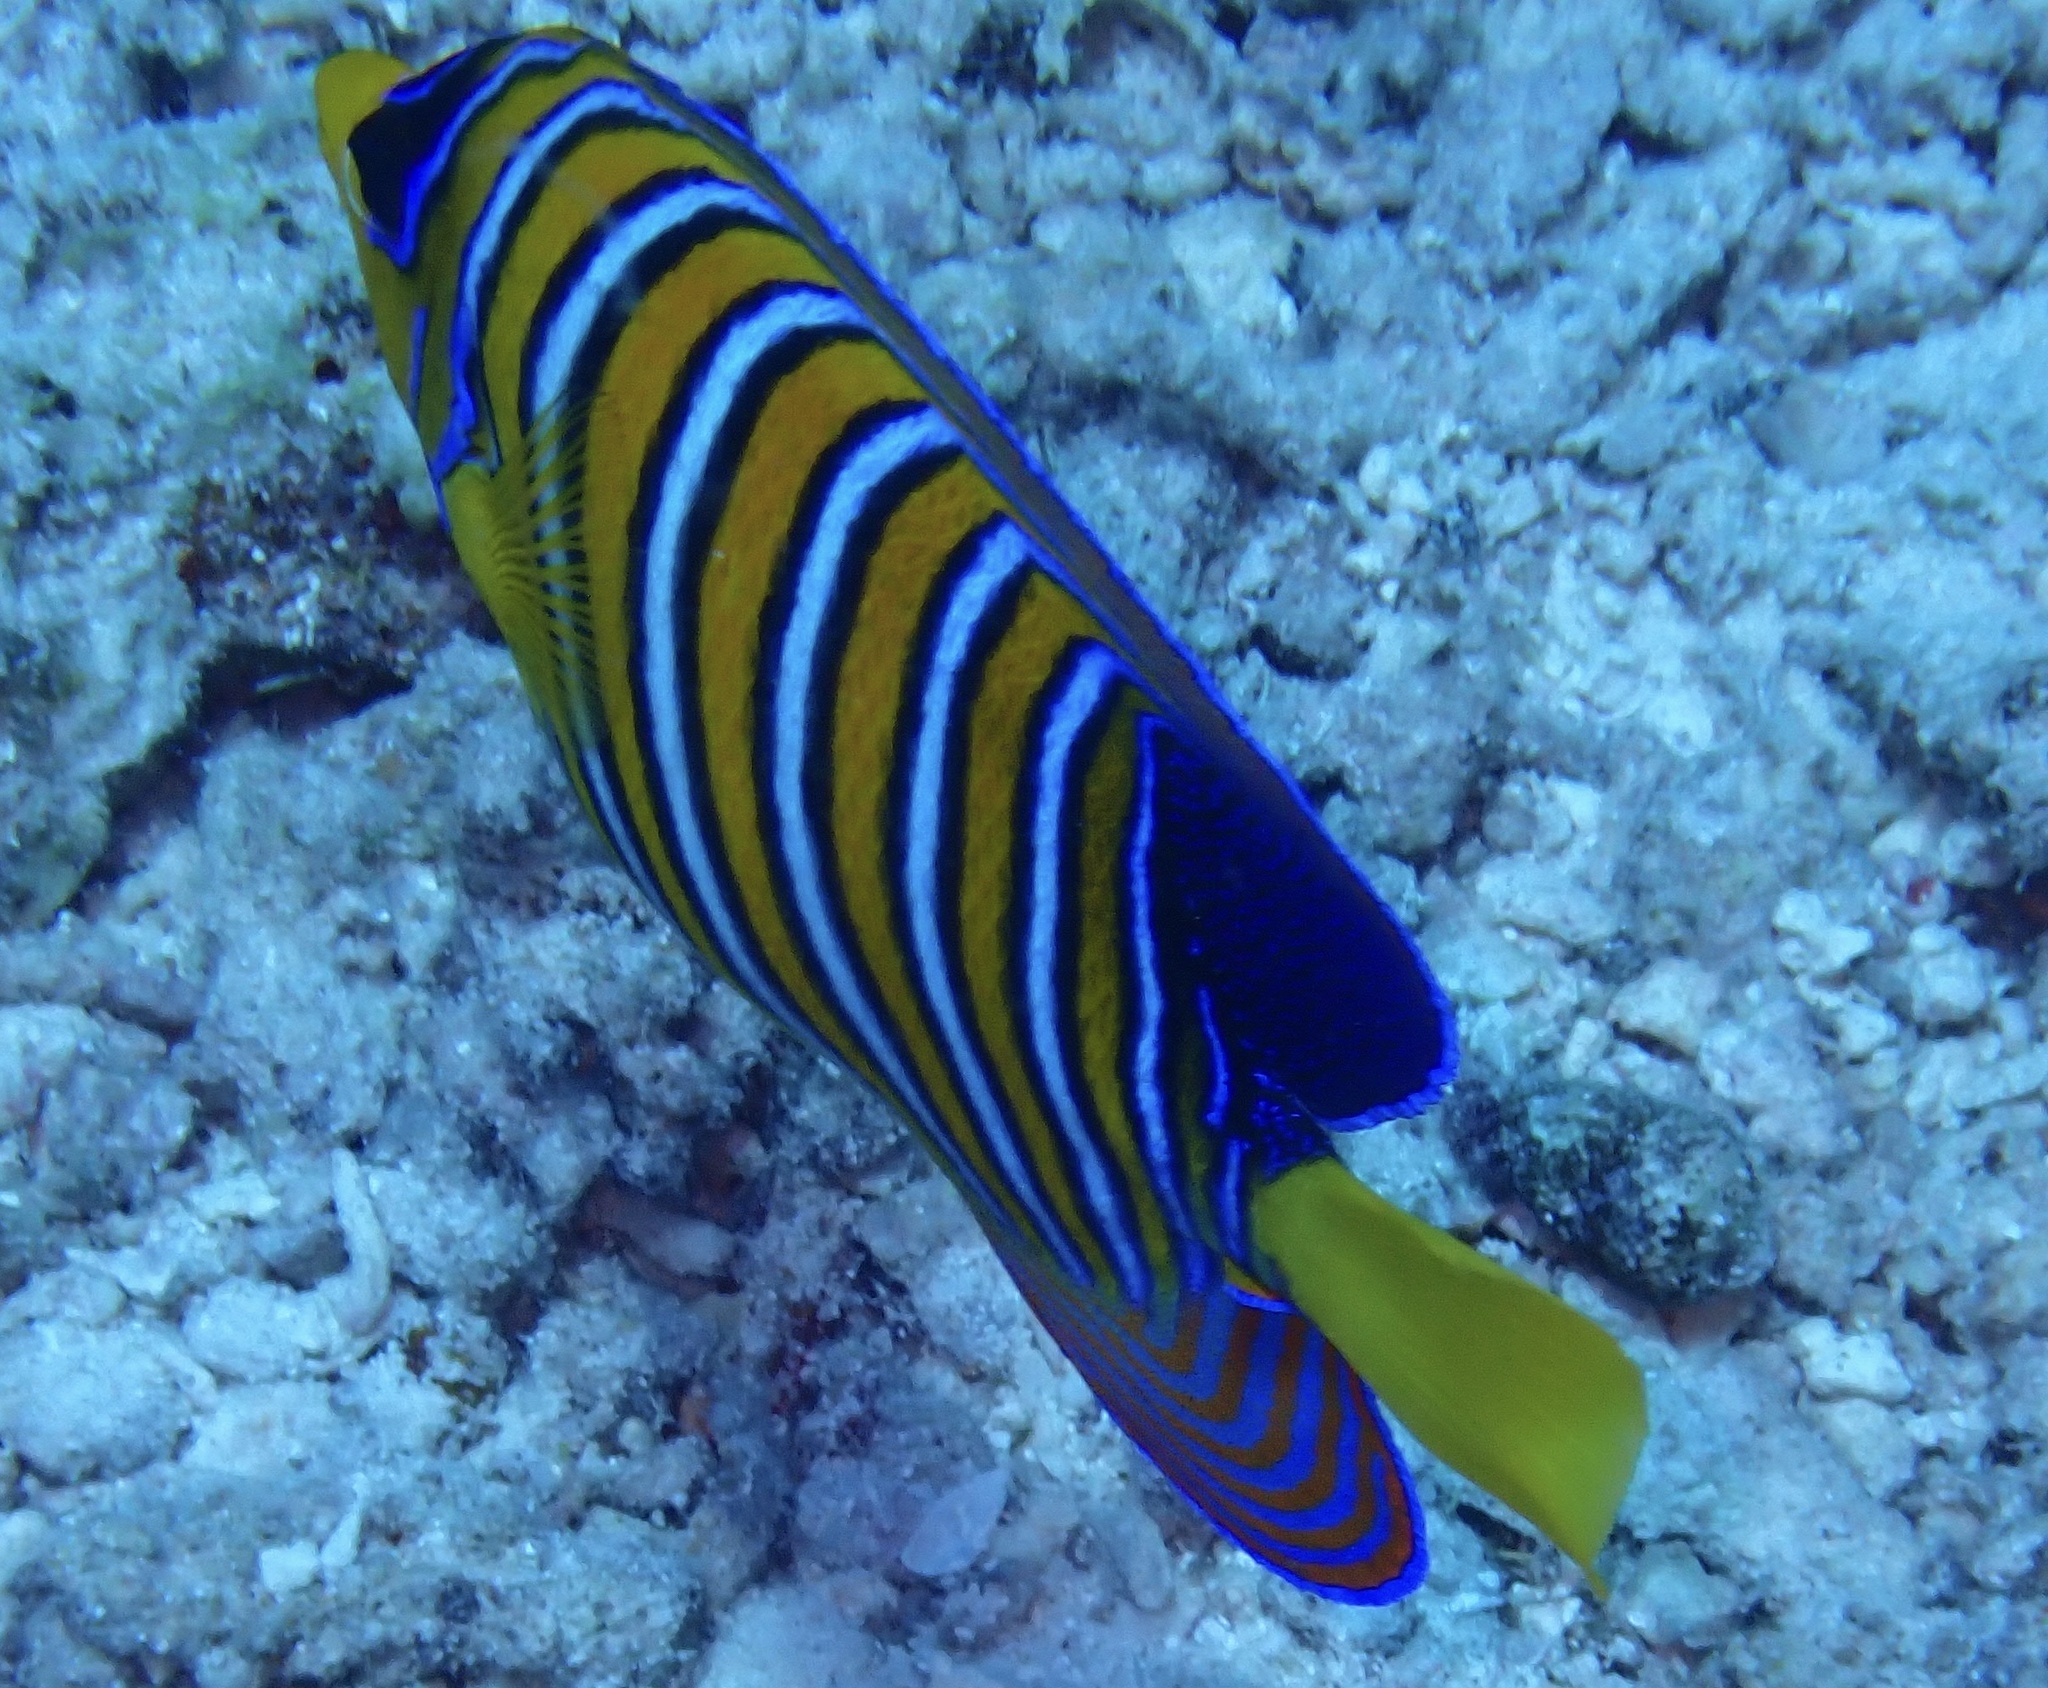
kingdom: Animalia
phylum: Chordata
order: Perciformes
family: Pomacanthidae
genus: Pygoplites
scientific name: Pygoplites diacanthus
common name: Regal angelfish
